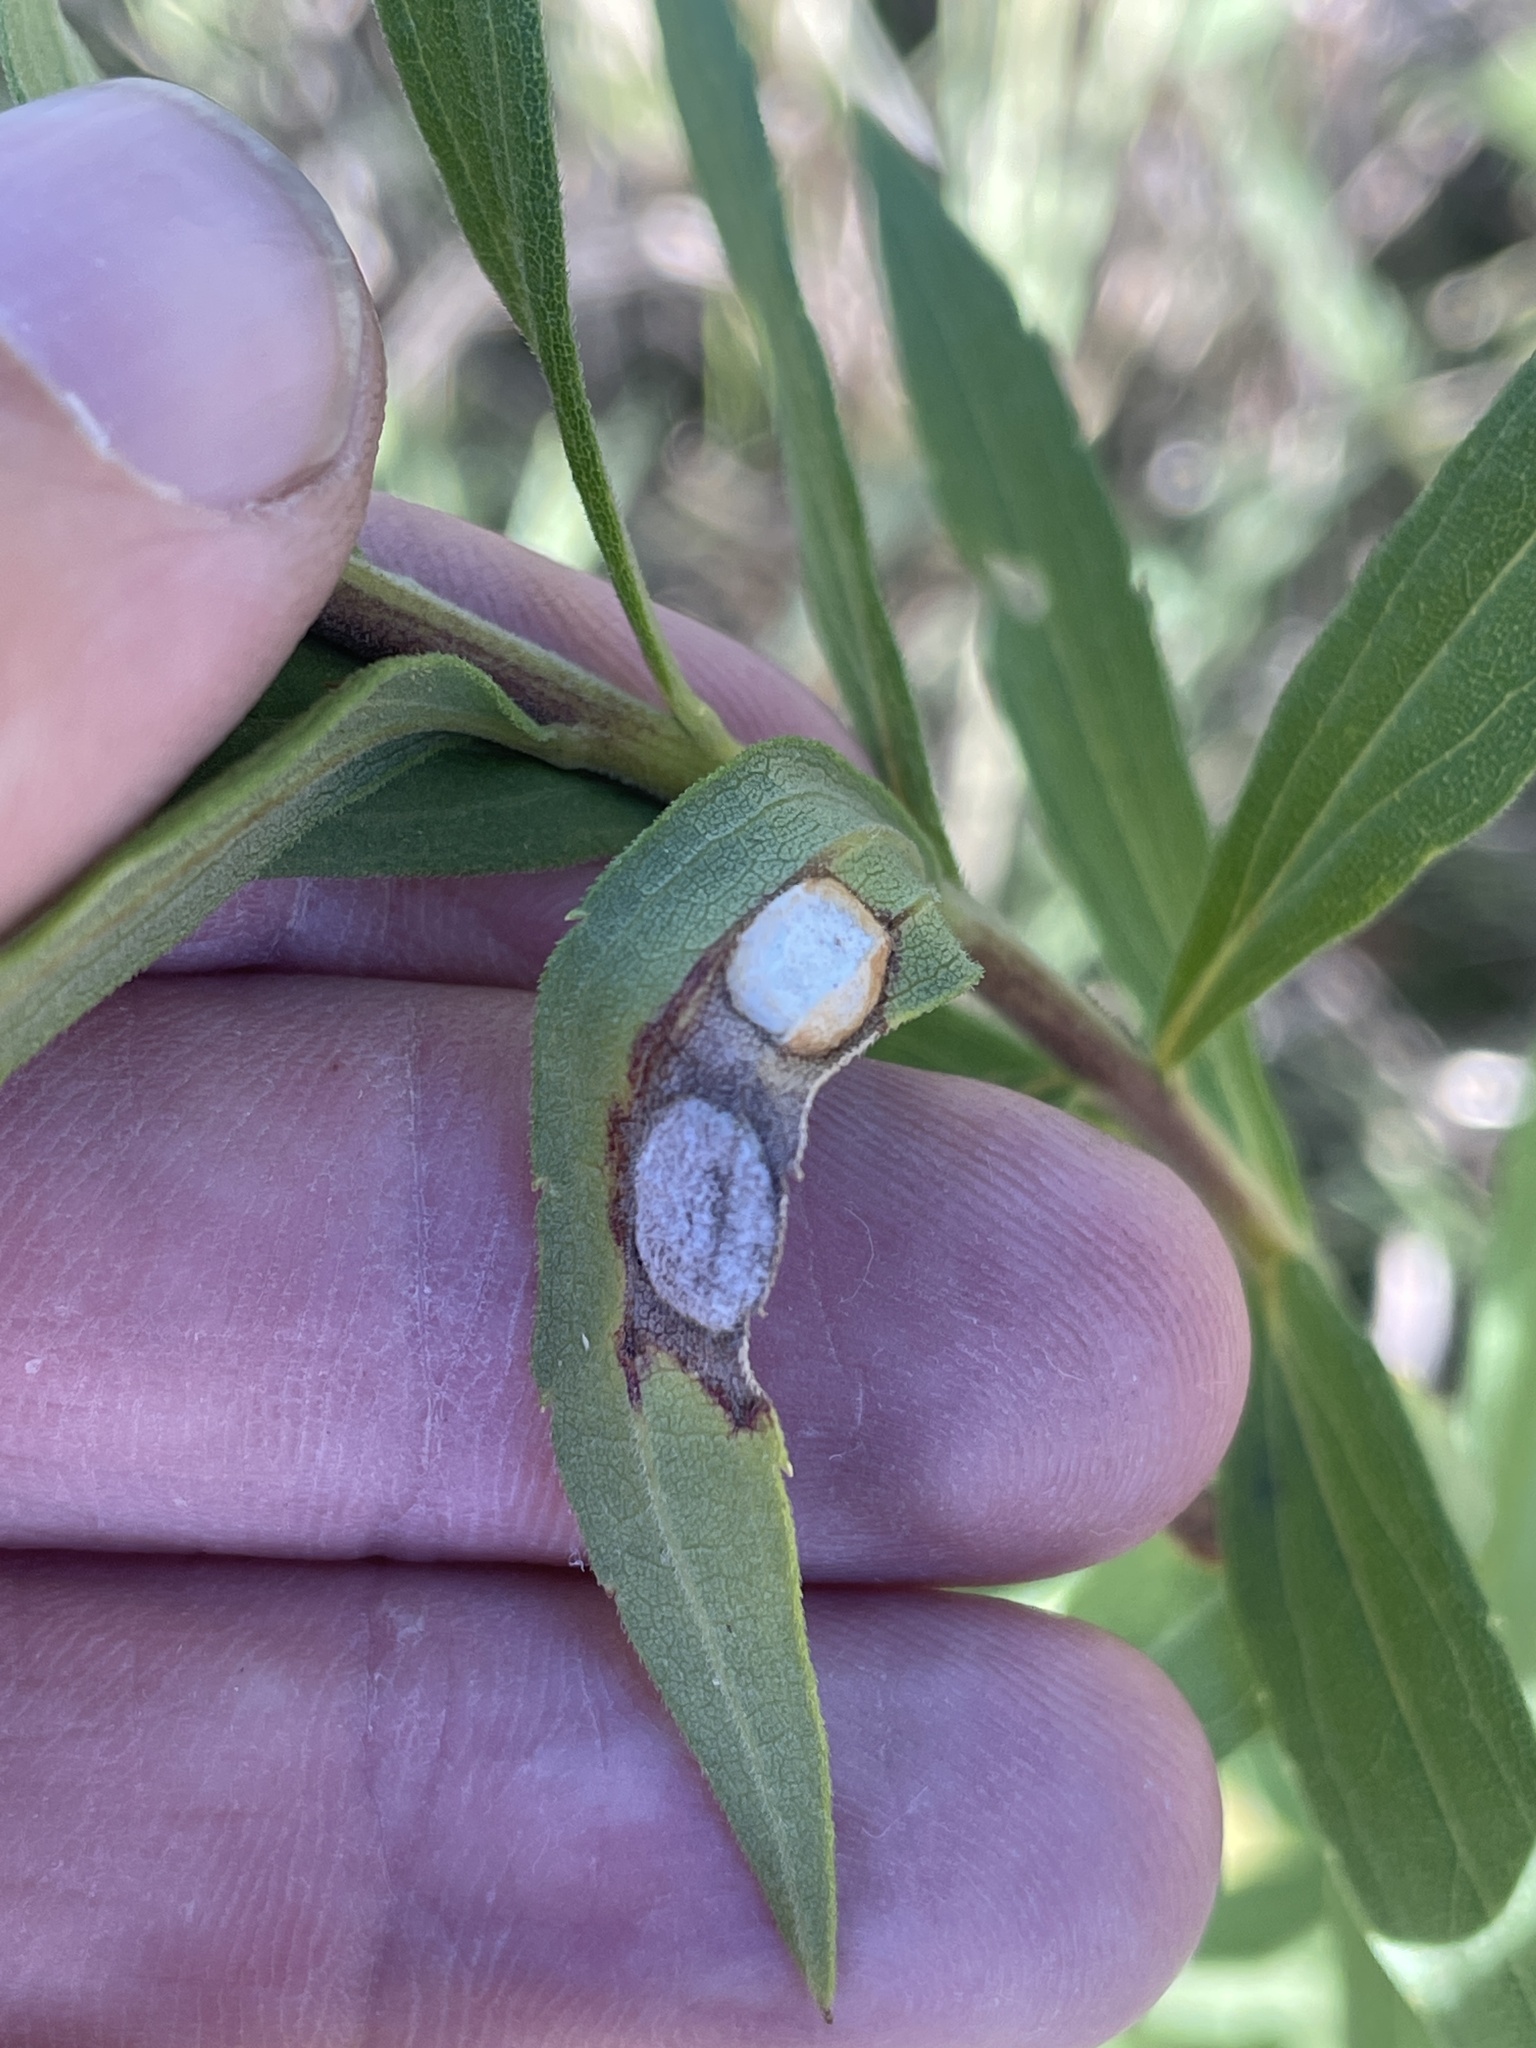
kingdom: Animalia
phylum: Arthropoda
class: Insecta
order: Diptera
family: Cecidomyiidae
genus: Asteromyia
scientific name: Asteromyia carbonifera
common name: Carbonifera goldenrod gall midge
